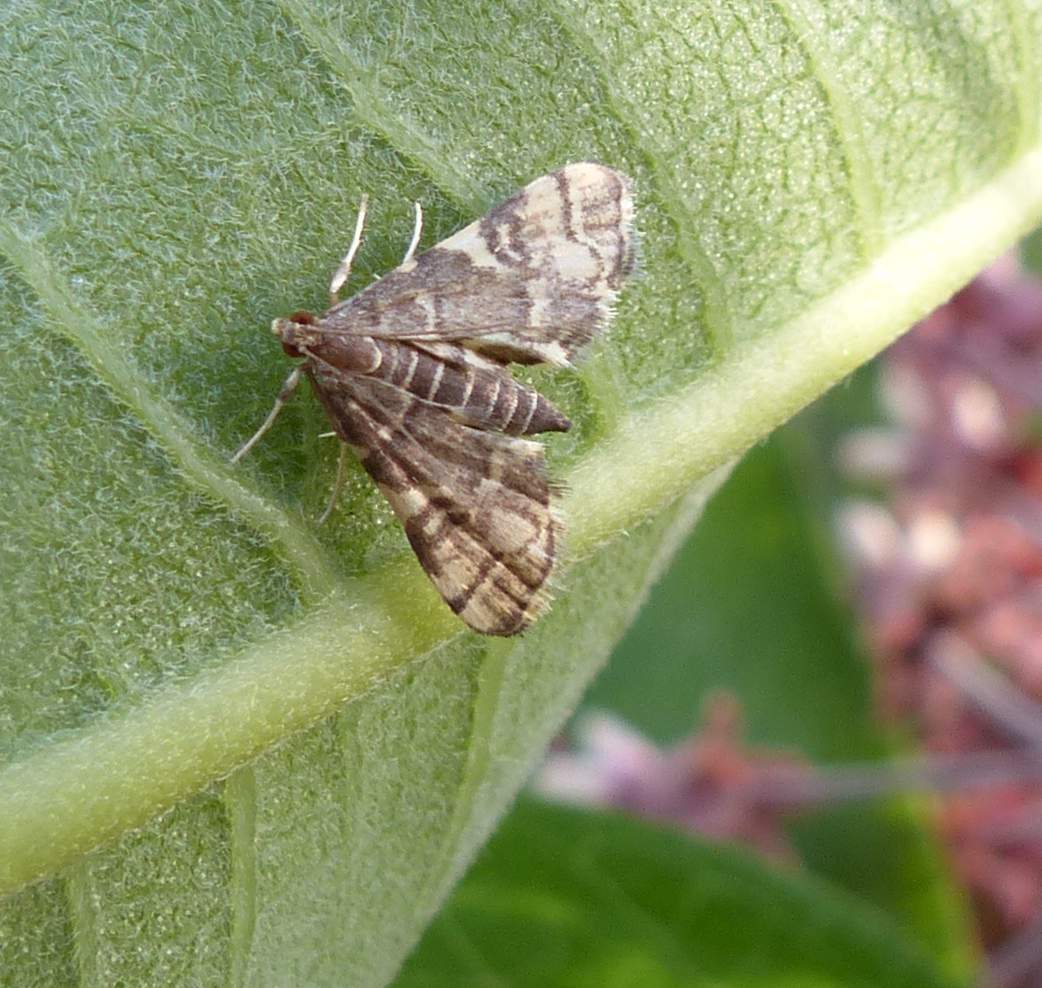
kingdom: Animalia
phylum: Arthropoda
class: Insecta
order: Lepidoptera
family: Crambidae
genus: Anageshna
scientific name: Anageshna primordialis
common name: Yellow-spotted webworm moth
